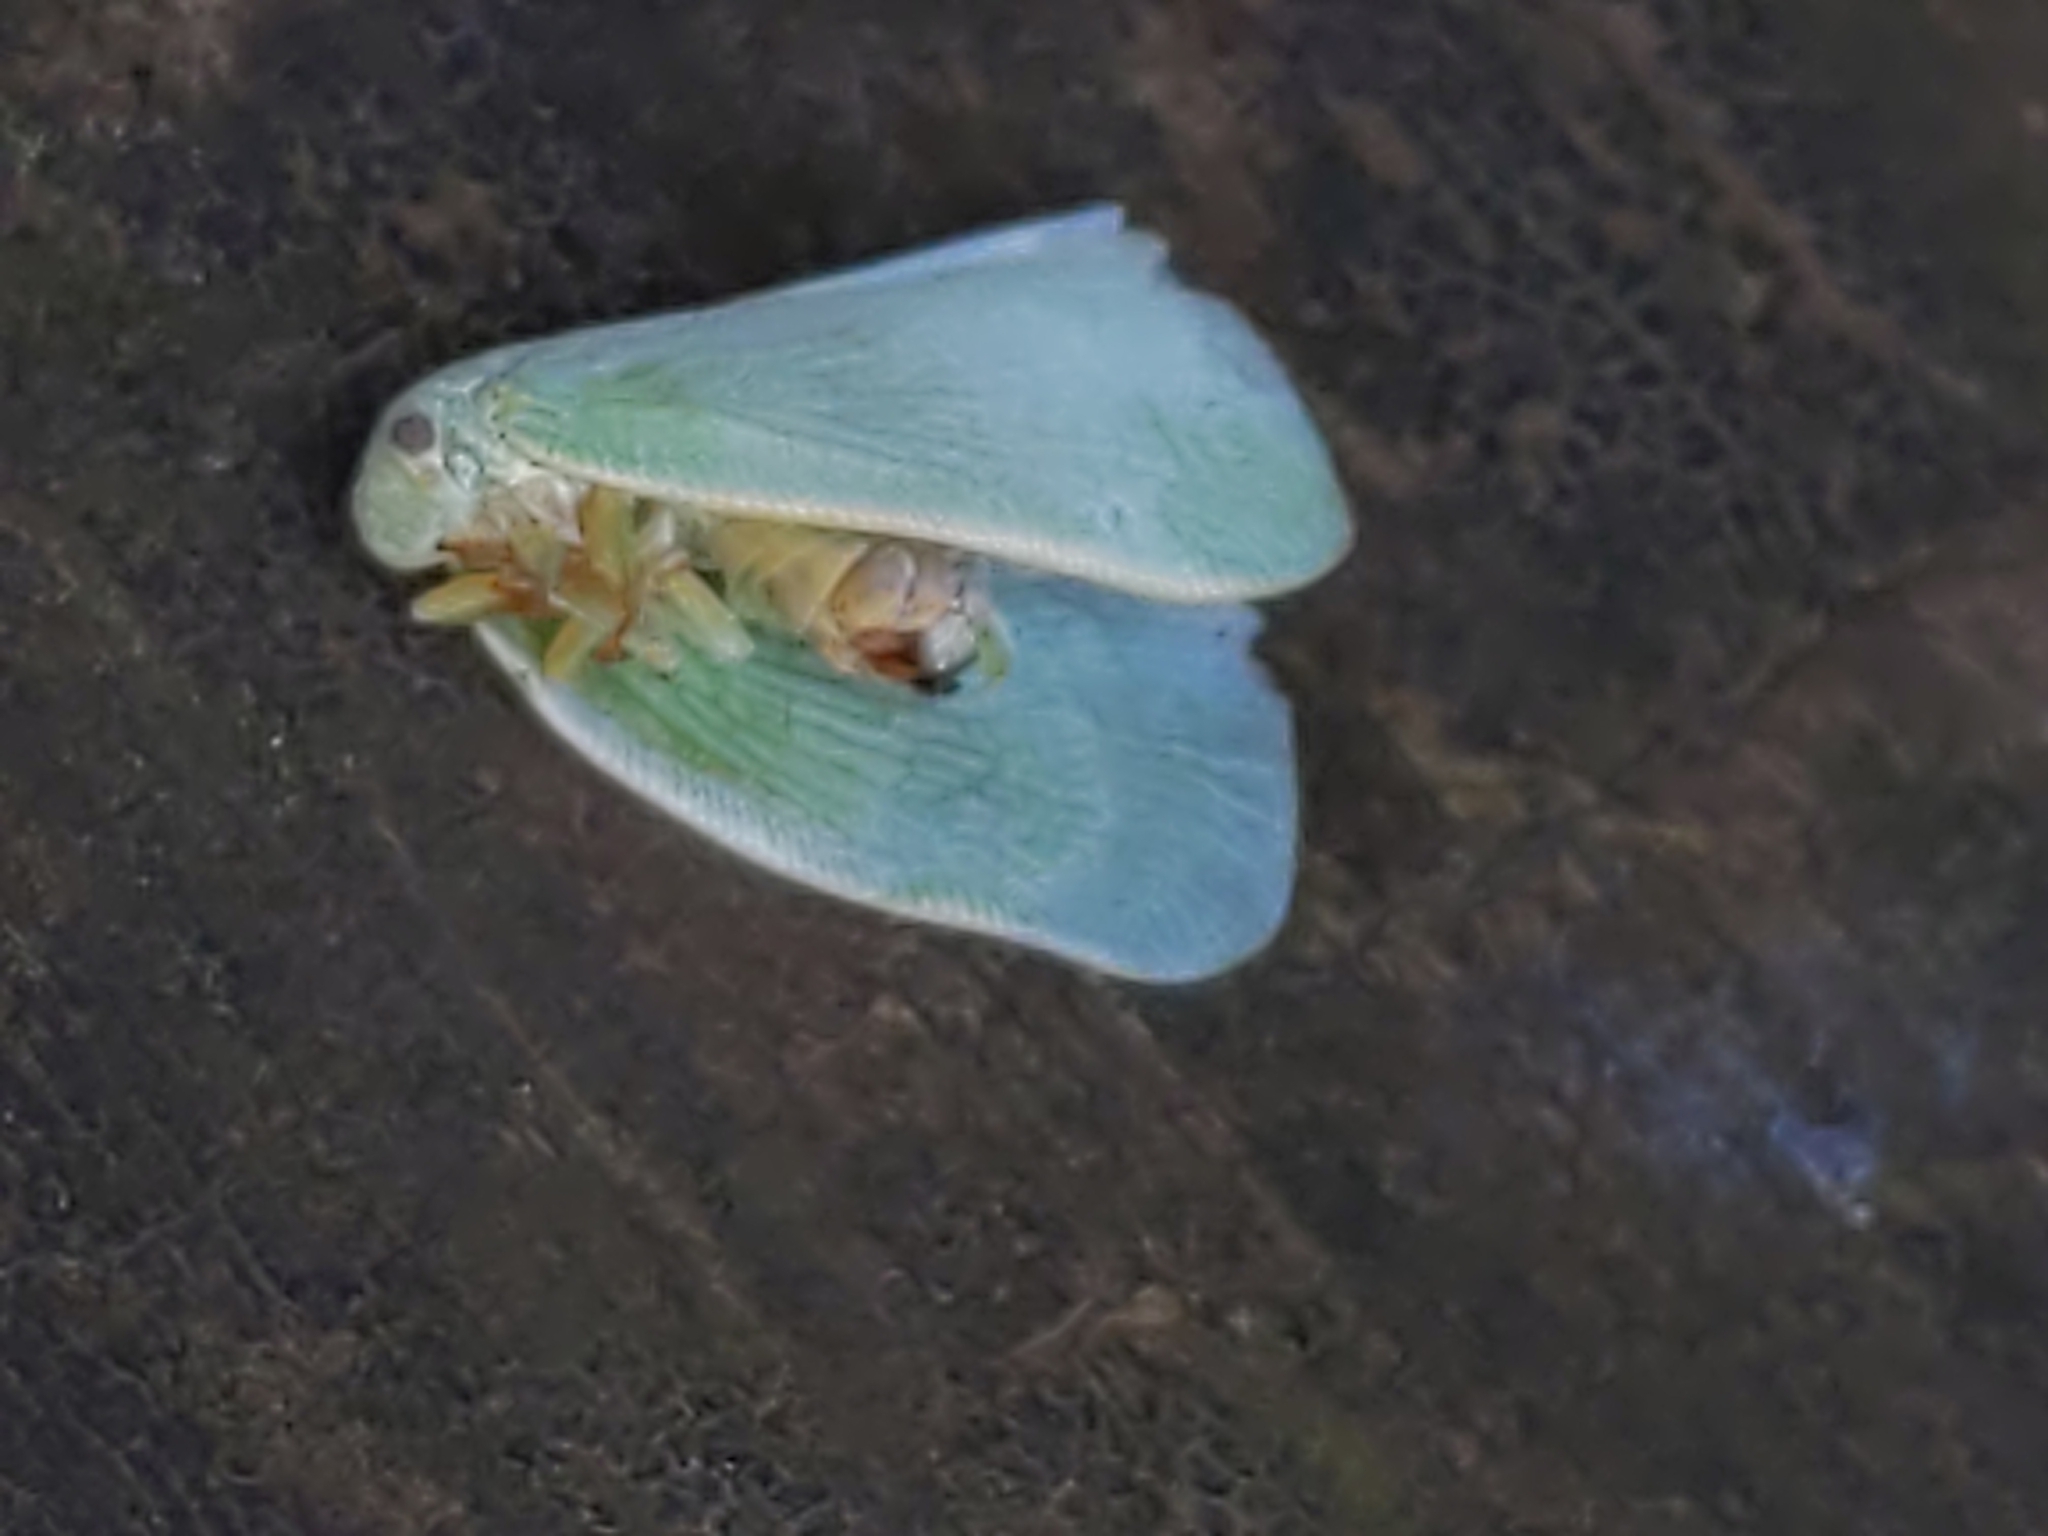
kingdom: Animalia
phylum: Arthropoda
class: Insecta
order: Hemiptera
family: Flatidae
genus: Flatormenis
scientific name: Flatormenis proxima
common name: Northern flatid planthopper
